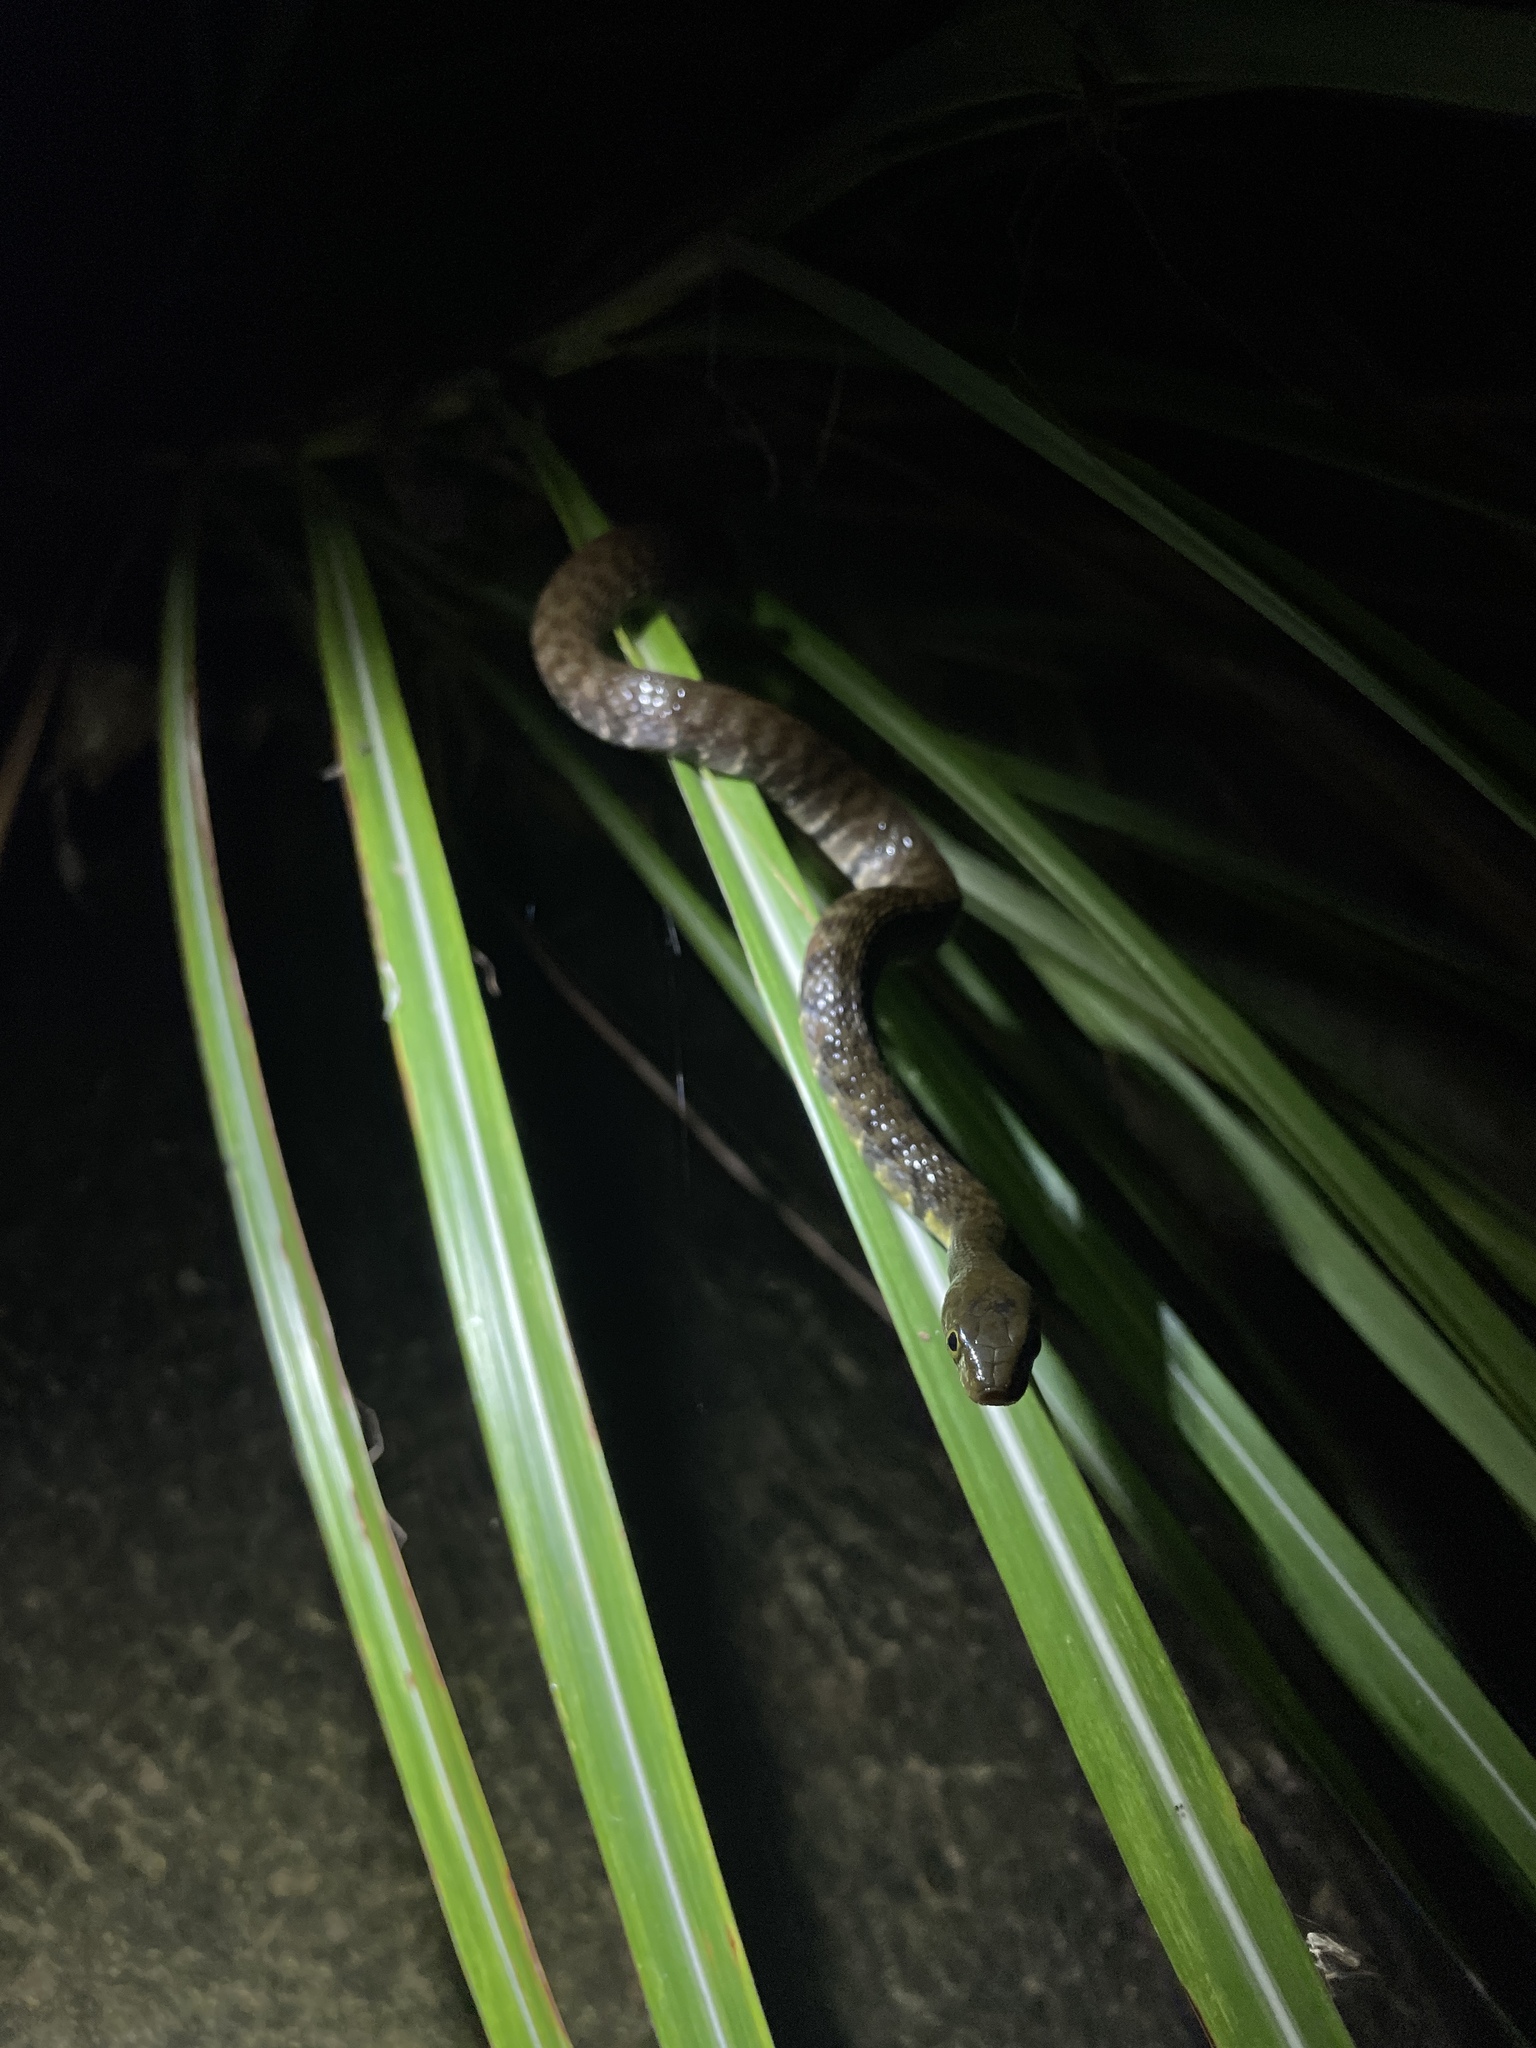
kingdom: Animalia
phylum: Chordata
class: Squamata
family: Colubridae
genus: Trimerodytes
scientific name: Trimerodytes percarinatus
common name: Eastern water snake
